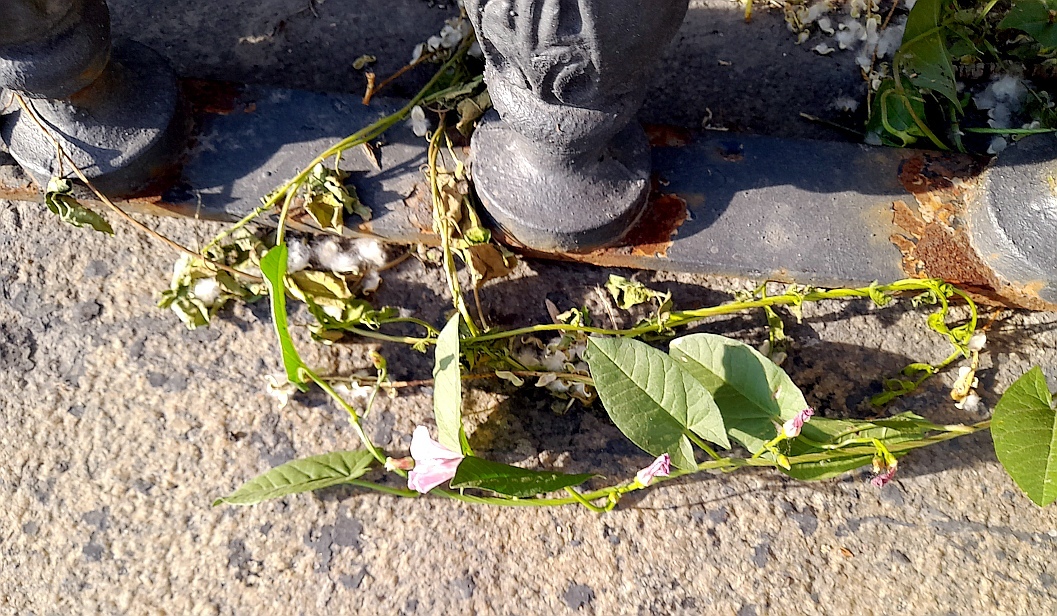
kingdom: Plantae
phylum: Tracheophyta
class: Magnoliopsida
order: Solanales
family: Convolvulaceae
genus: Convolvulus
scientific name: Convolvulus arvensis
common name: Field bindweed
